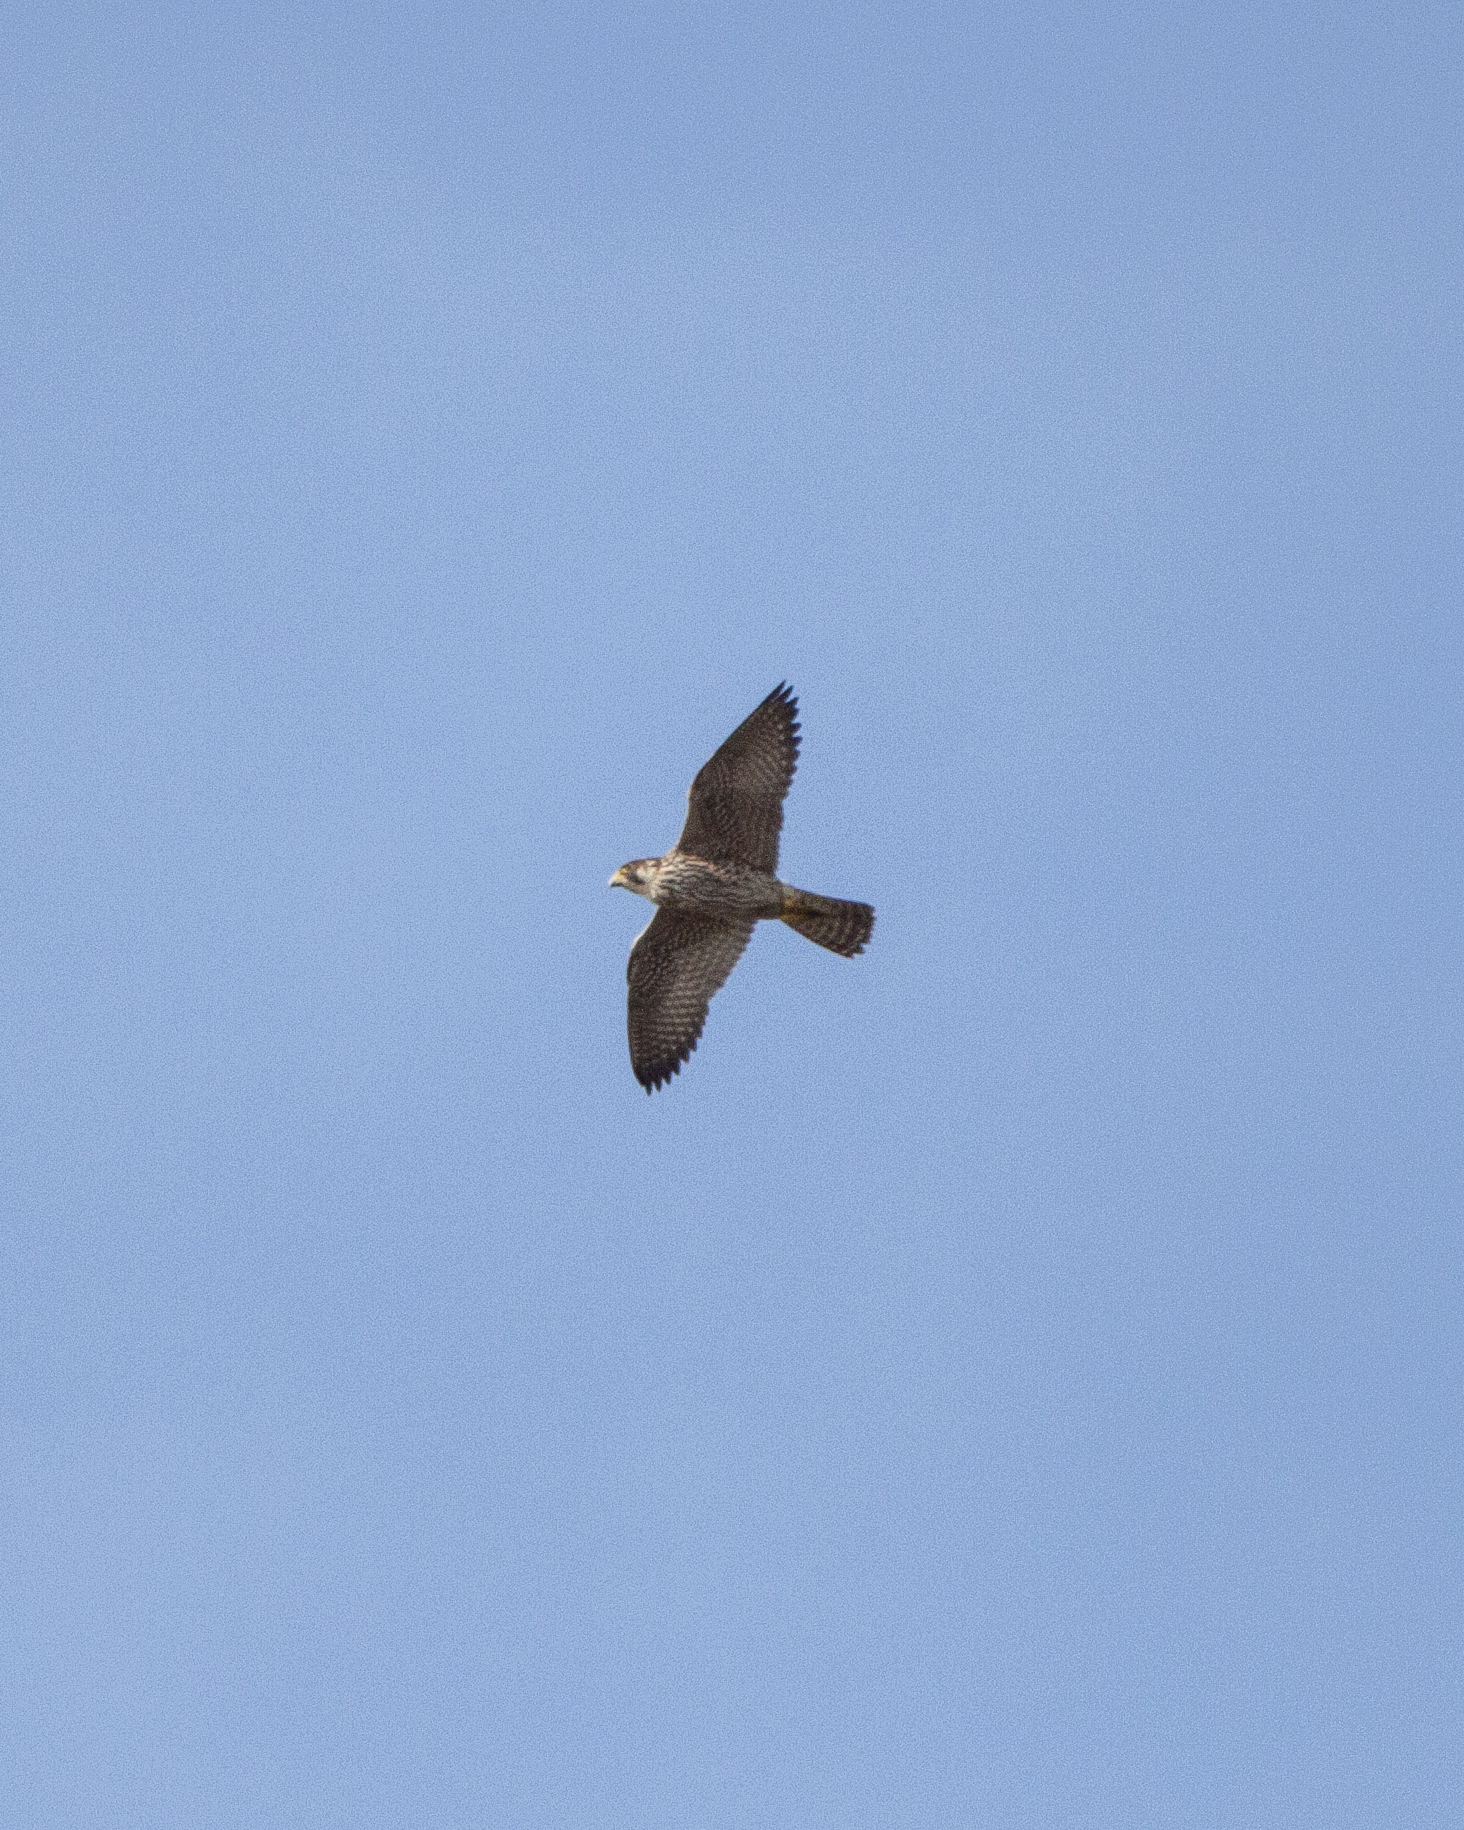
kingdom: Animalia
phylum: Chordata
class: Aves
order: Falconiformes
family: Falconidae
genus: Falco
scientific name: Falco peregrinus
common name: Peregrine falcon
